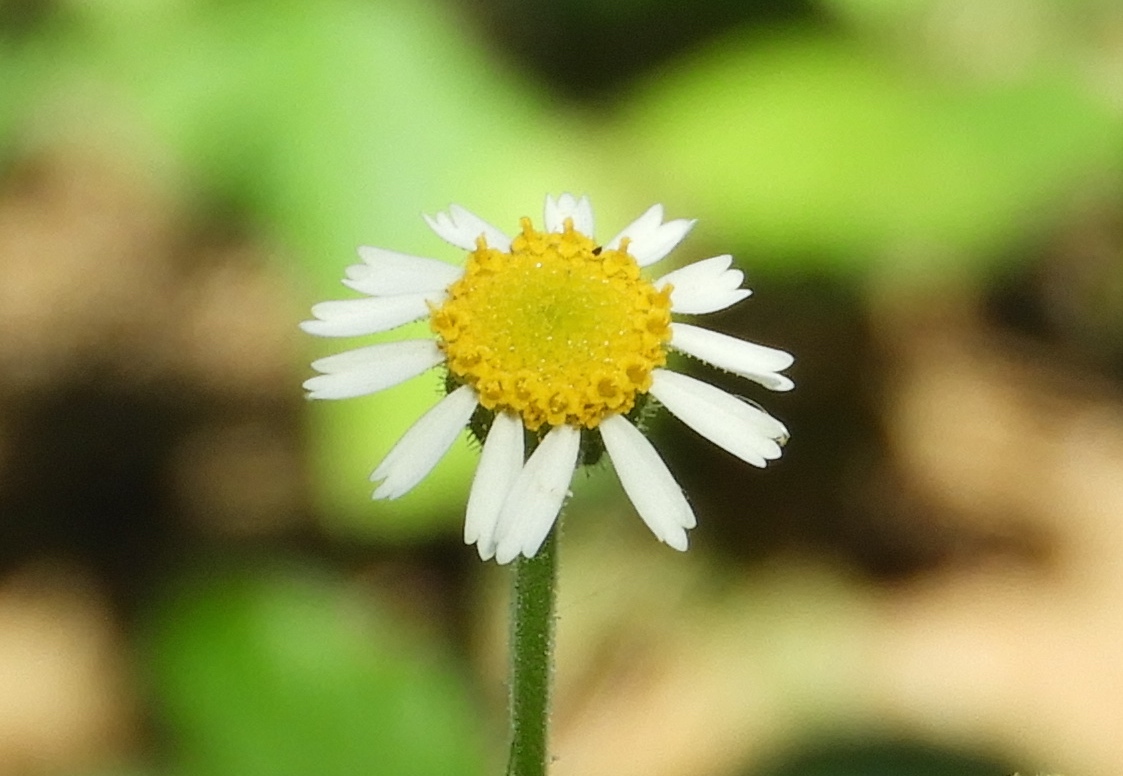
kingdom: Plantae
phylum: Tracheophyta
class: Magnoliopsida
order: Asterales
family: Asteraceae
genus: Galinsogeopsis
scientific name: Galinsogeopsis spilanthoides
